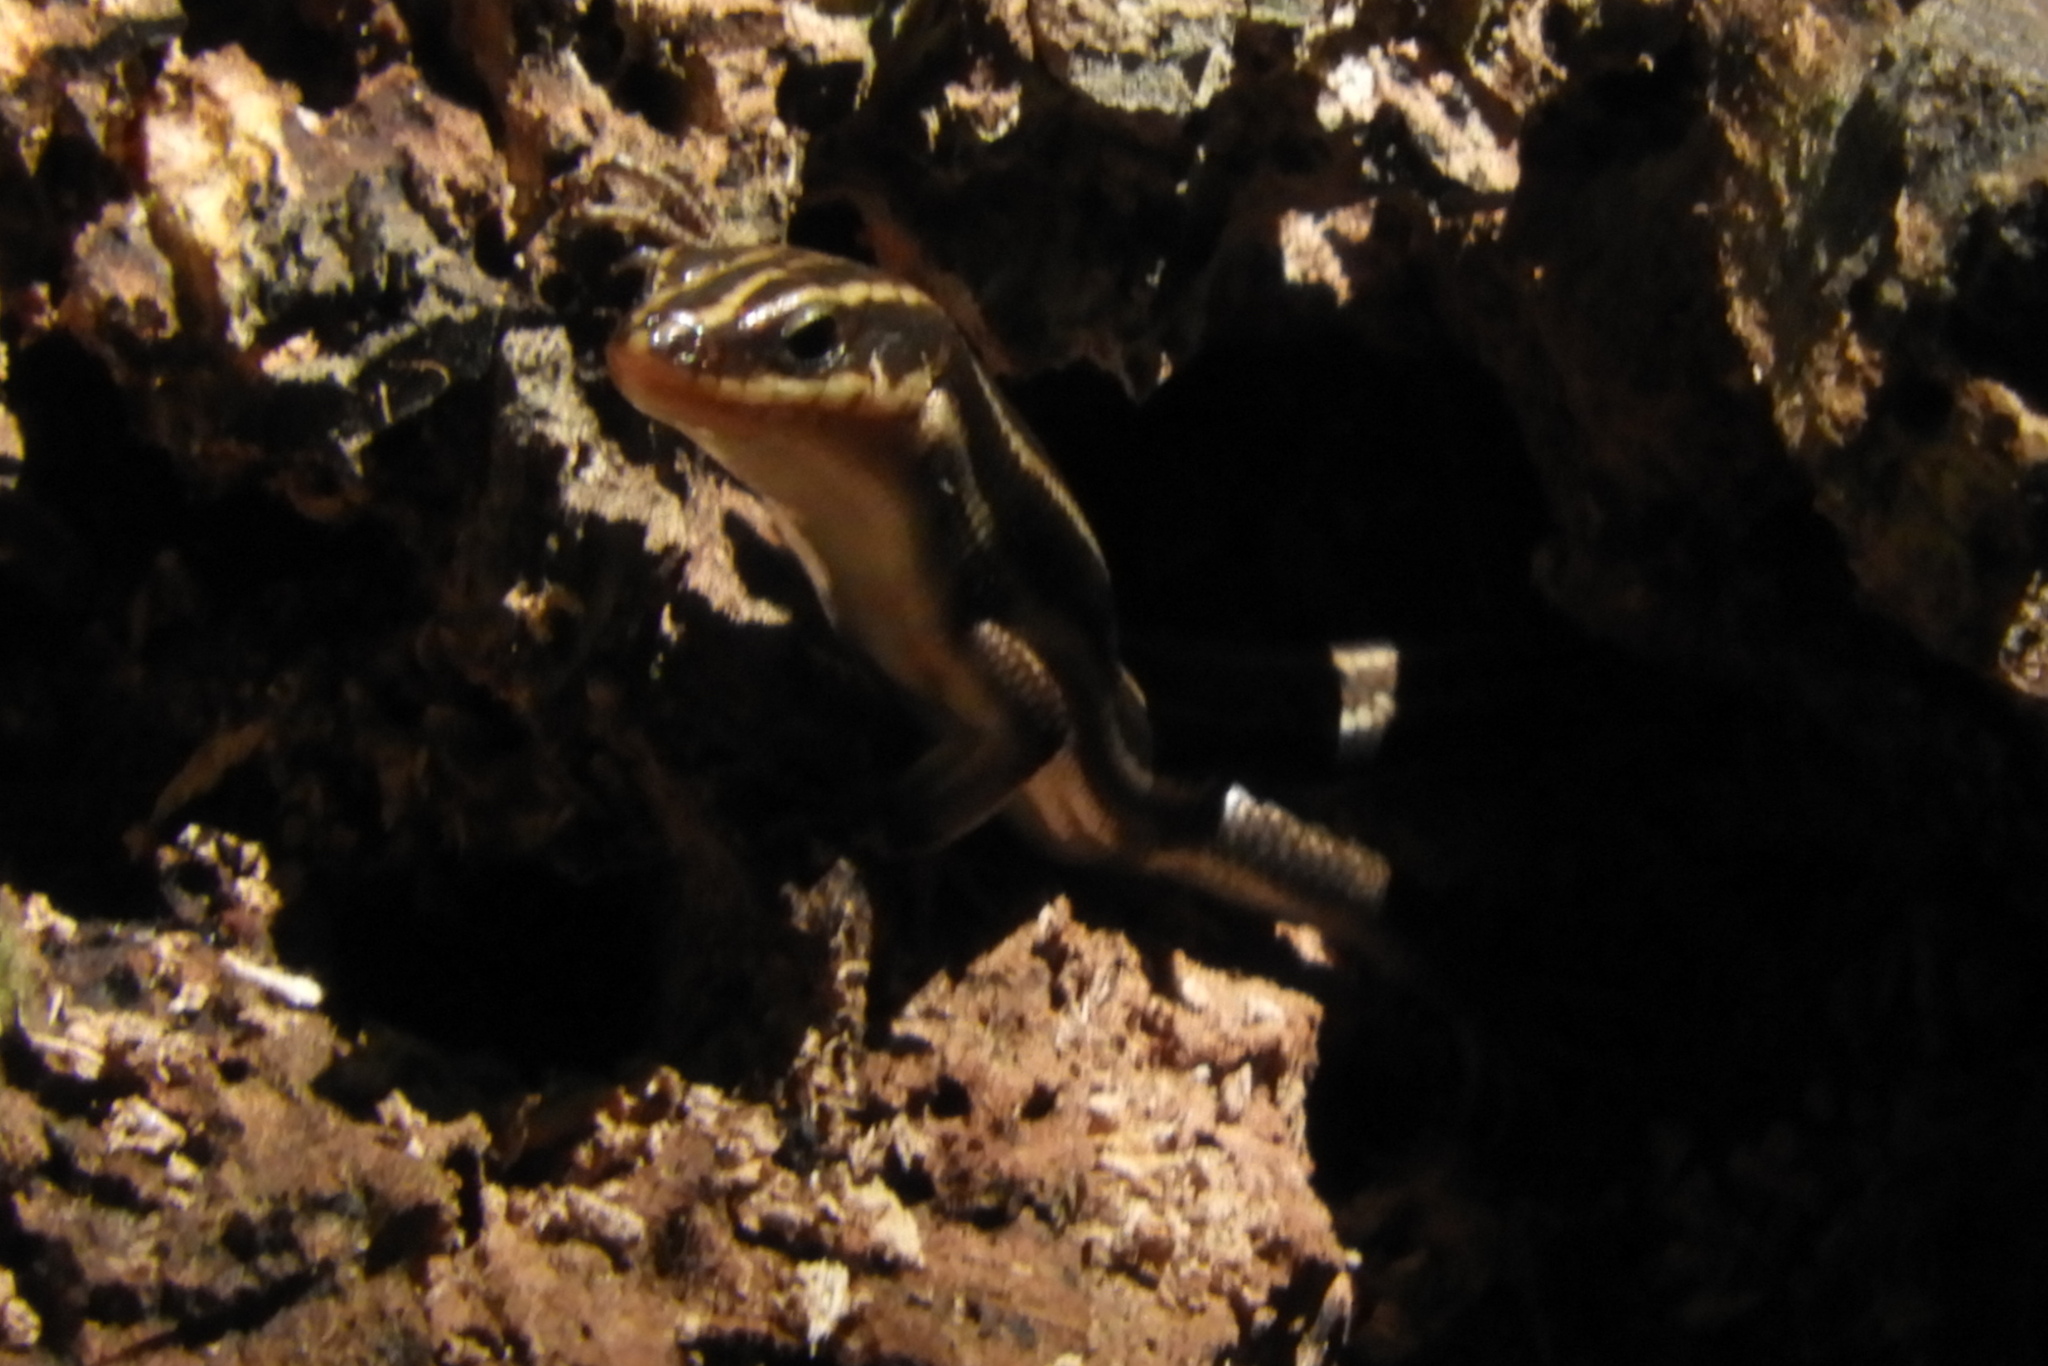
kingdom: Animalia
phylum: Chordata
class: Squamata
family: Scincidae
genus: Plestiodon
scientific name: Plestiodon fasciatus
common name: Five-lined skink
